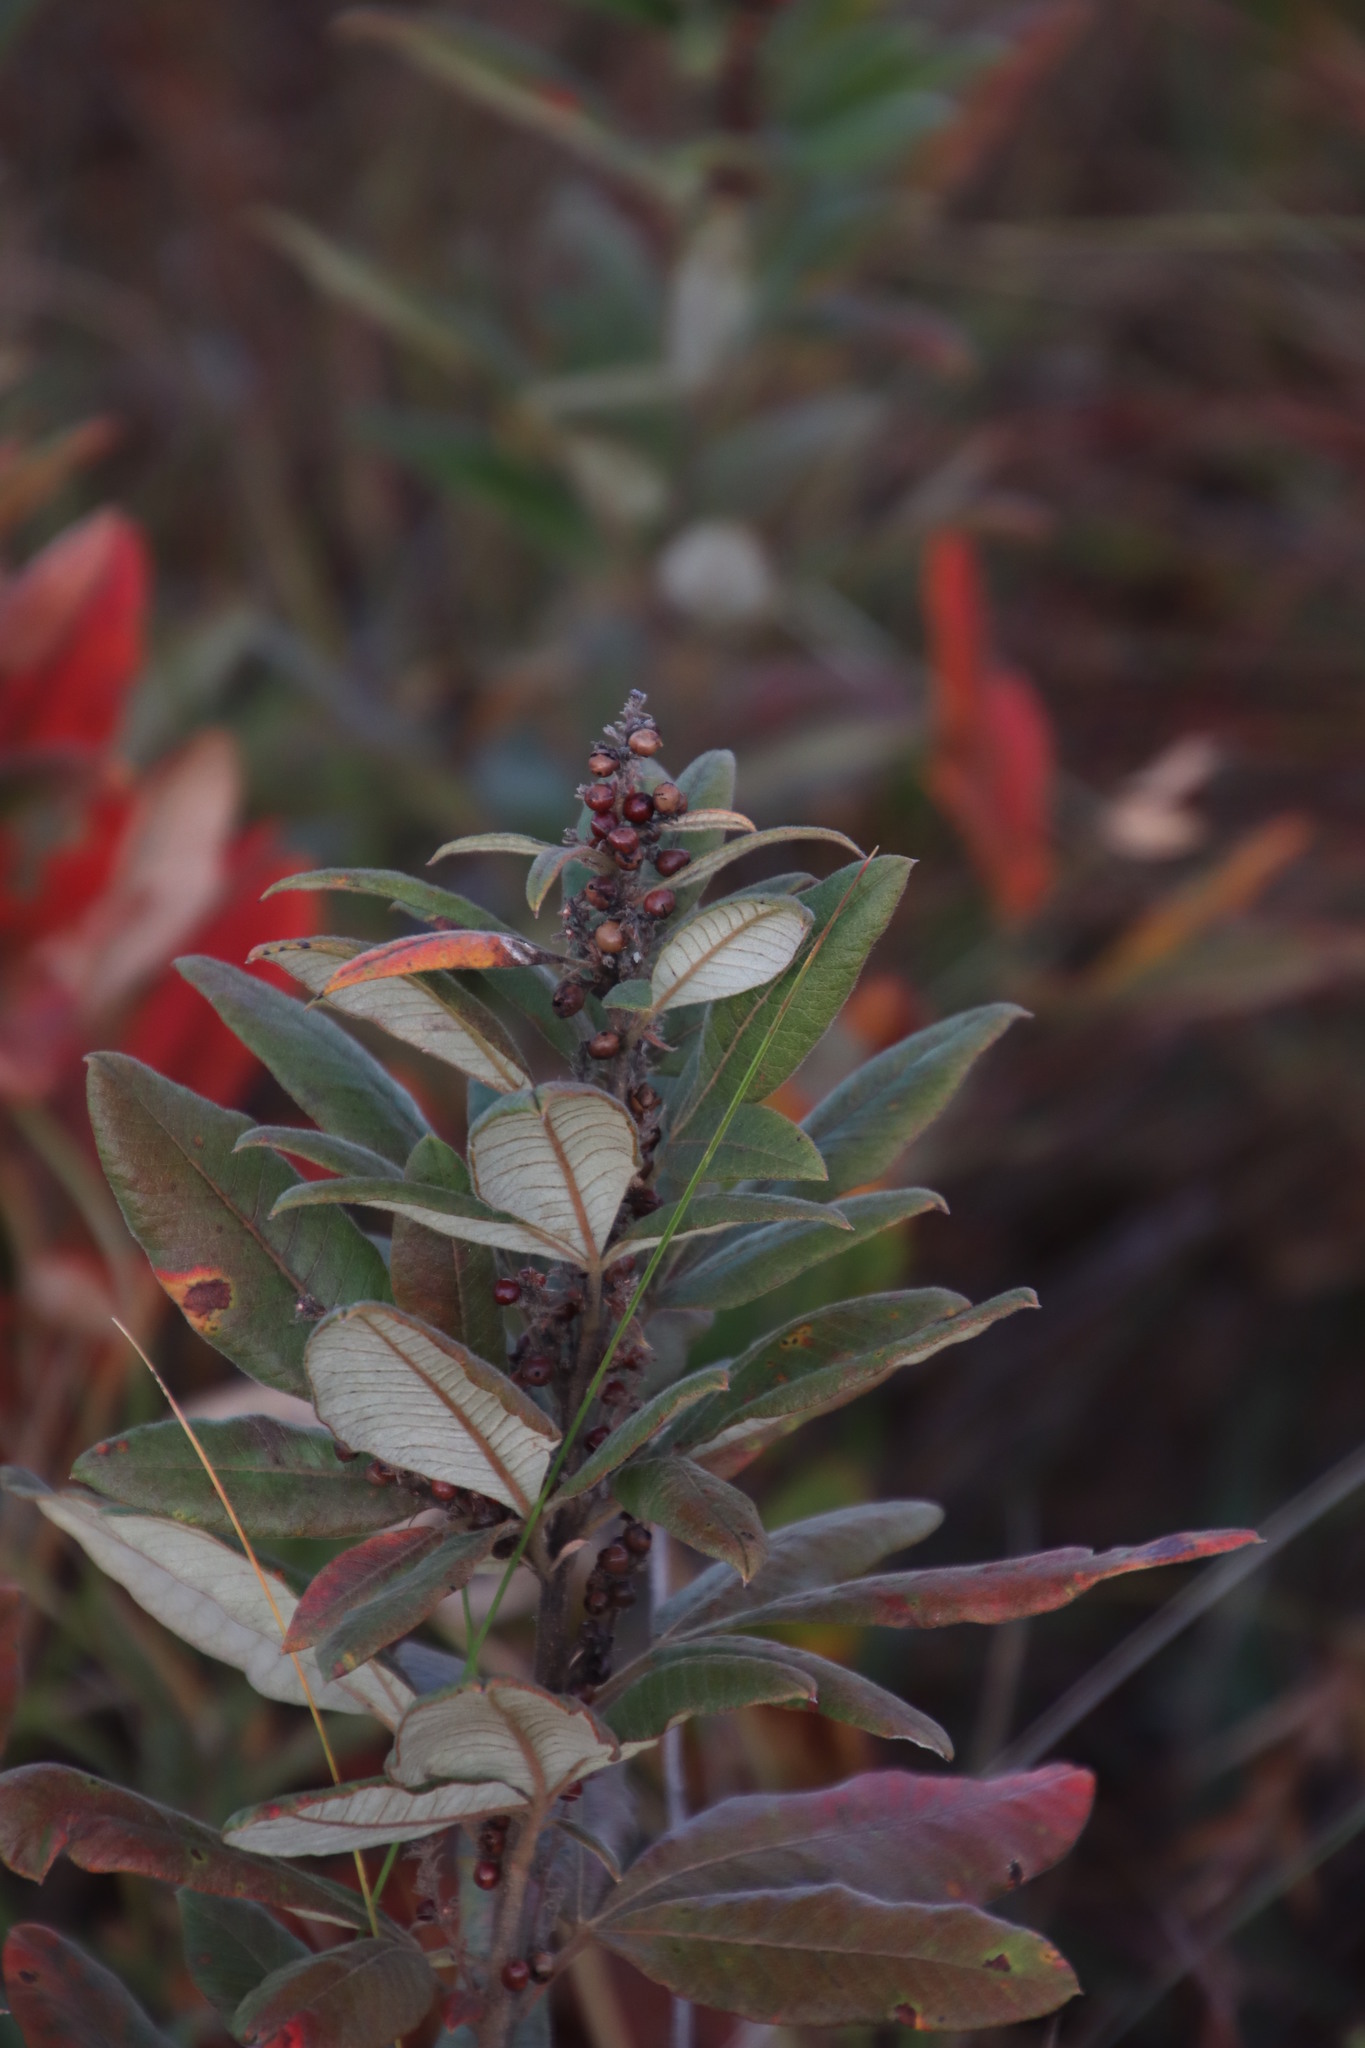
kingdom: Plantae
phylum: Tracheophyta
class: Magnoliopsida
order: Sapindales
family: Anacardiaceae
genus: Searsia
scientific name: Searsia discolor
